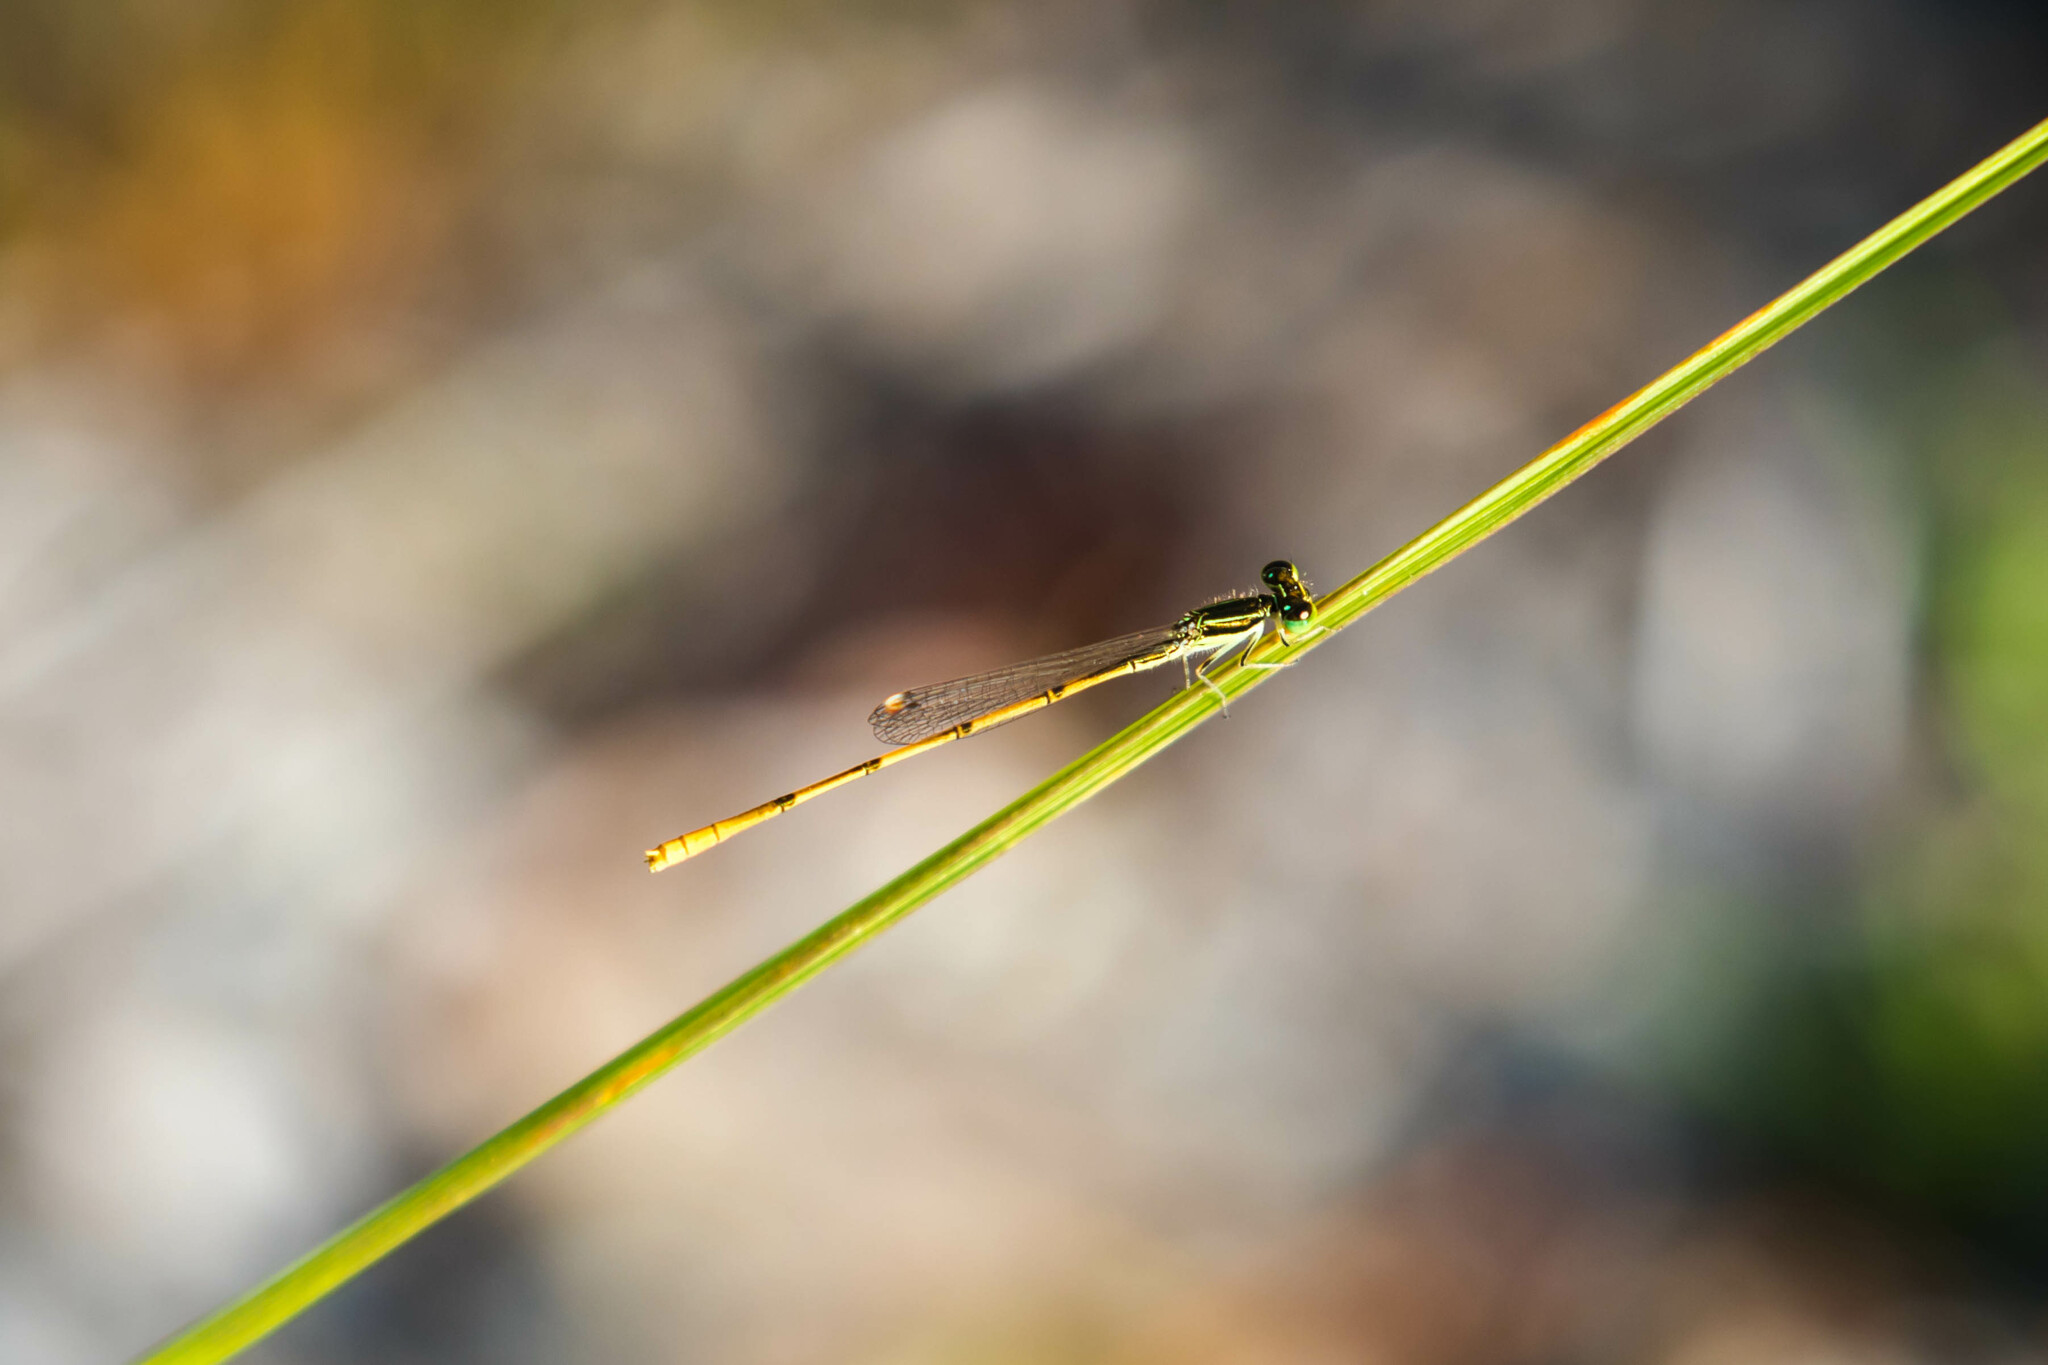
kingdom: Animalia
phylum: Arthropoda
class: Insecta
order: Odonata
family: Coenagrionidae
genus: Ischnura
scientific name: Ischnura hastata
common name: Citrine forktail
